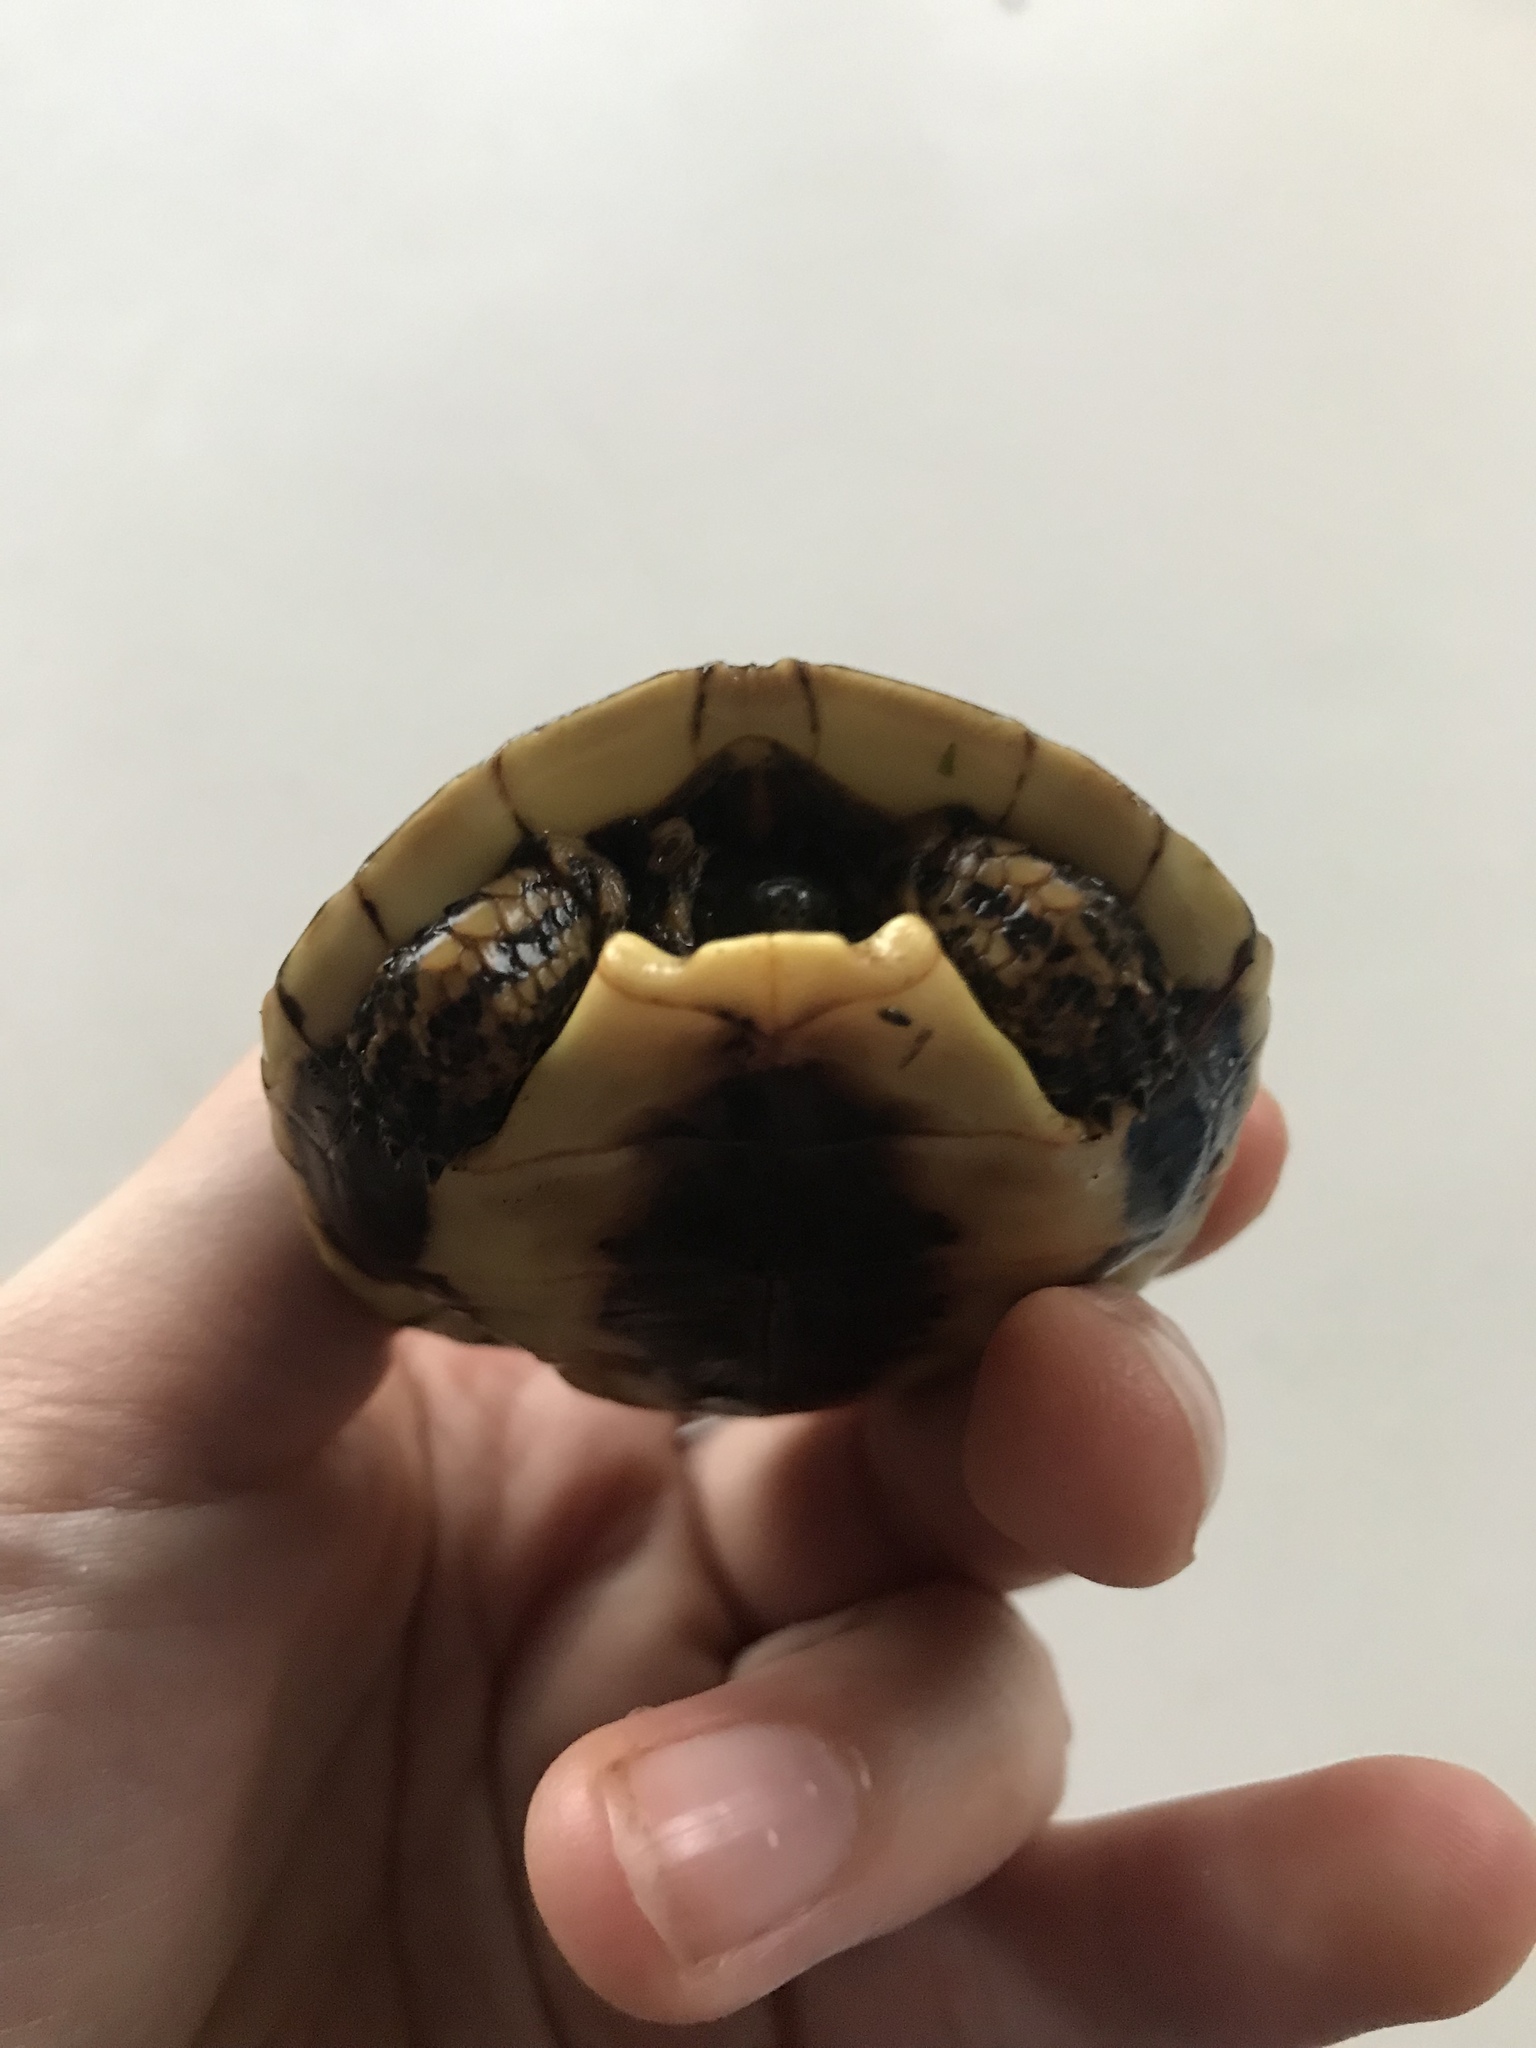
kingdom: Animalia
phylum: Chordata
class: Testudines
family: Geoemydidae
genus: Rhinoclemmys
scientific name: Rhinoclemmys annulata
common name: Brown wood turtle
